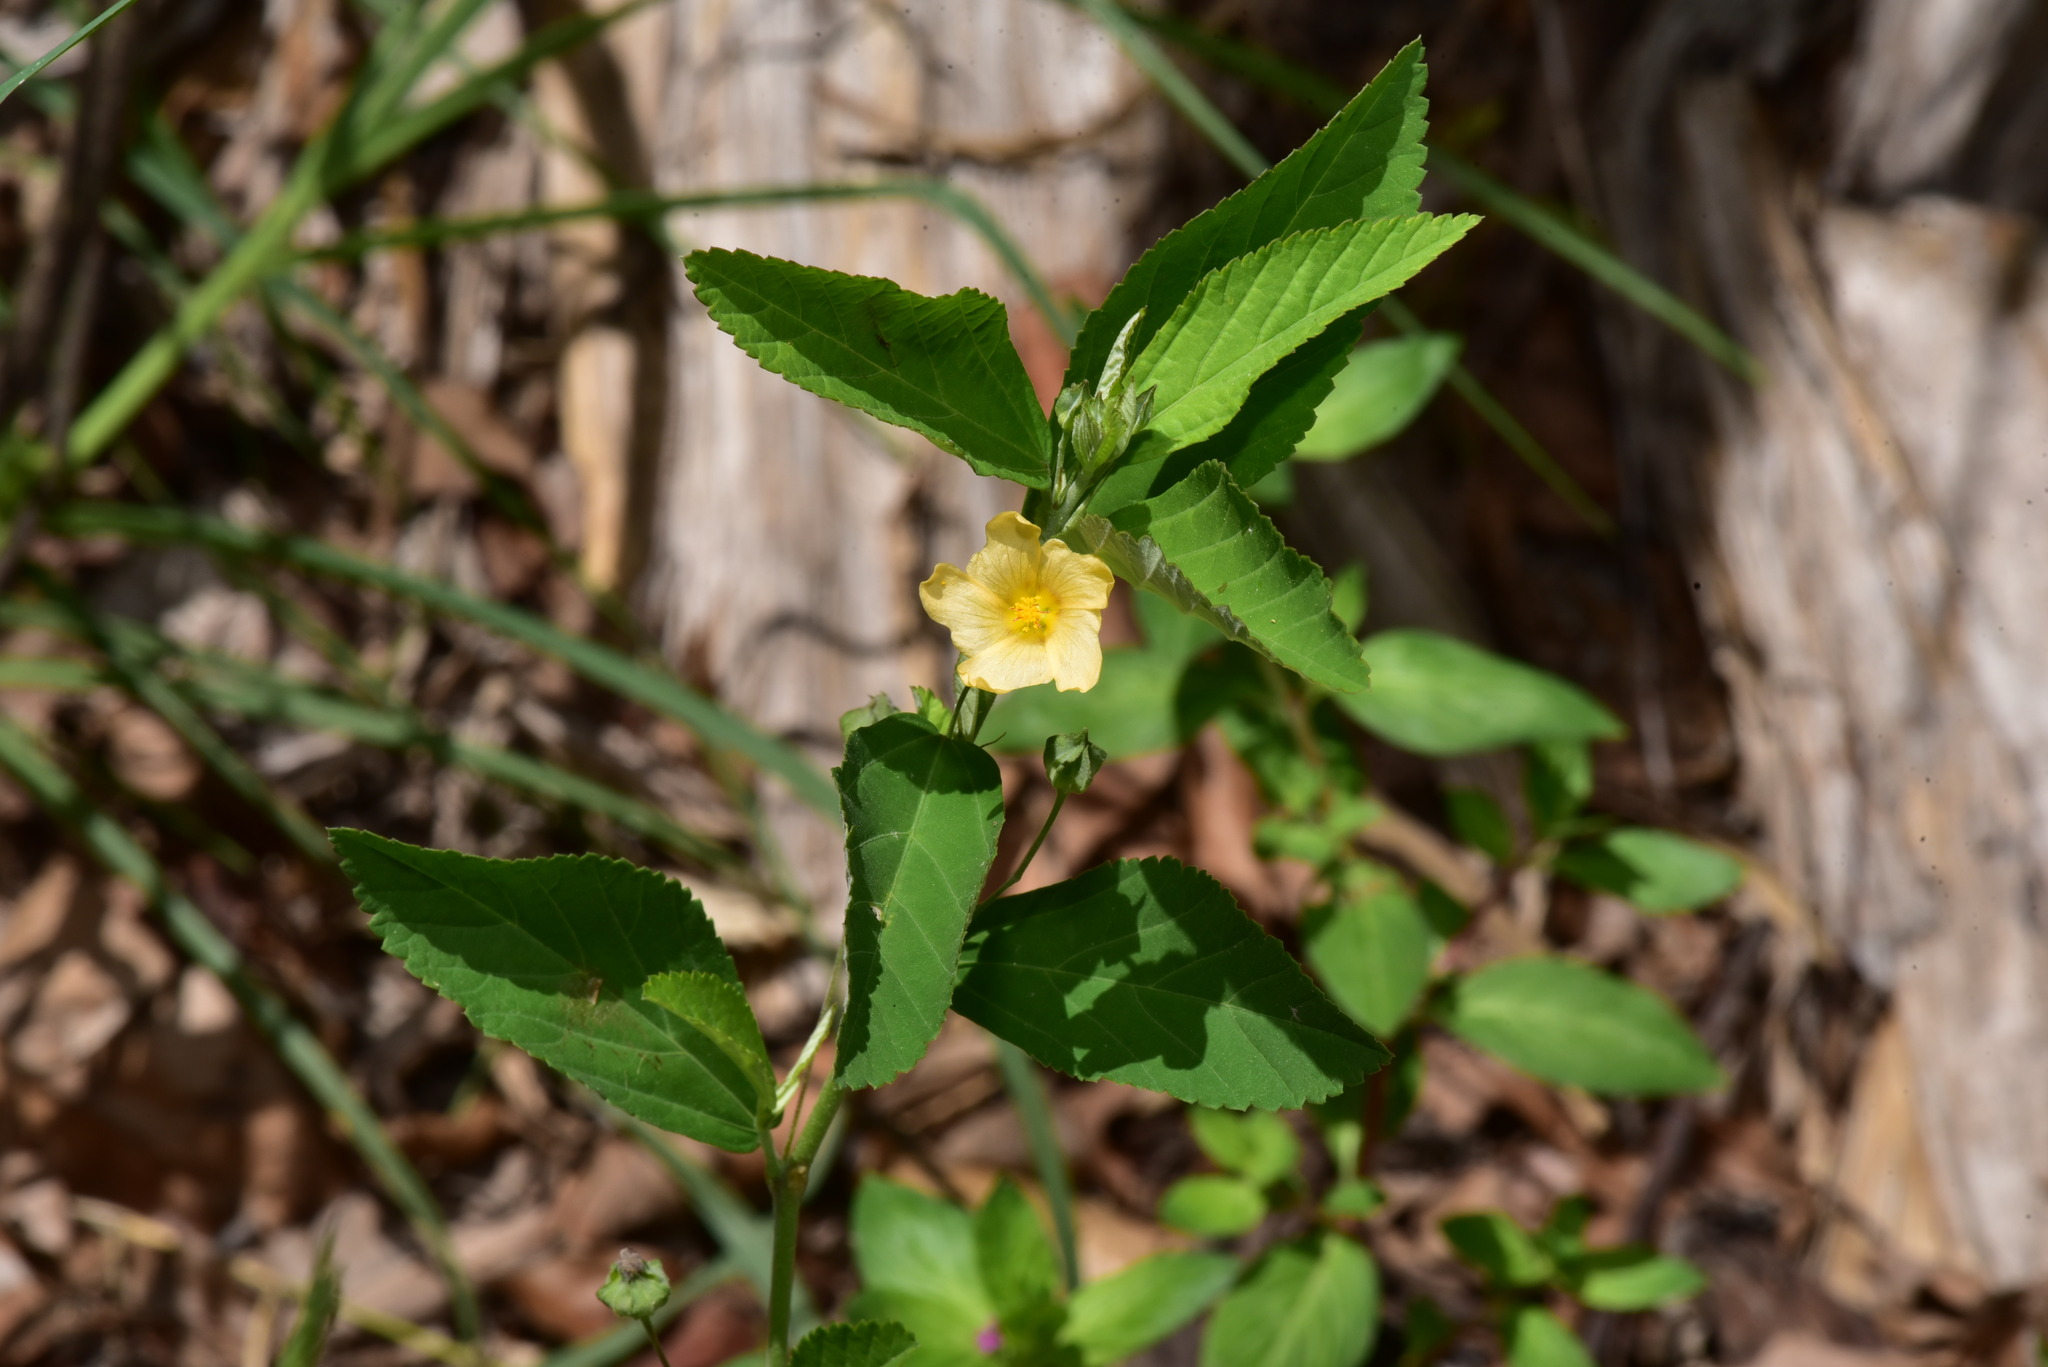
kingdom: Plantae
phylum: Tracheophyta
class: Magnoliopsida
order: Malvales
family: Malvaceae
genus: Sida
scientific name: Sida rhombifolia
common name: Queensland-hemp
